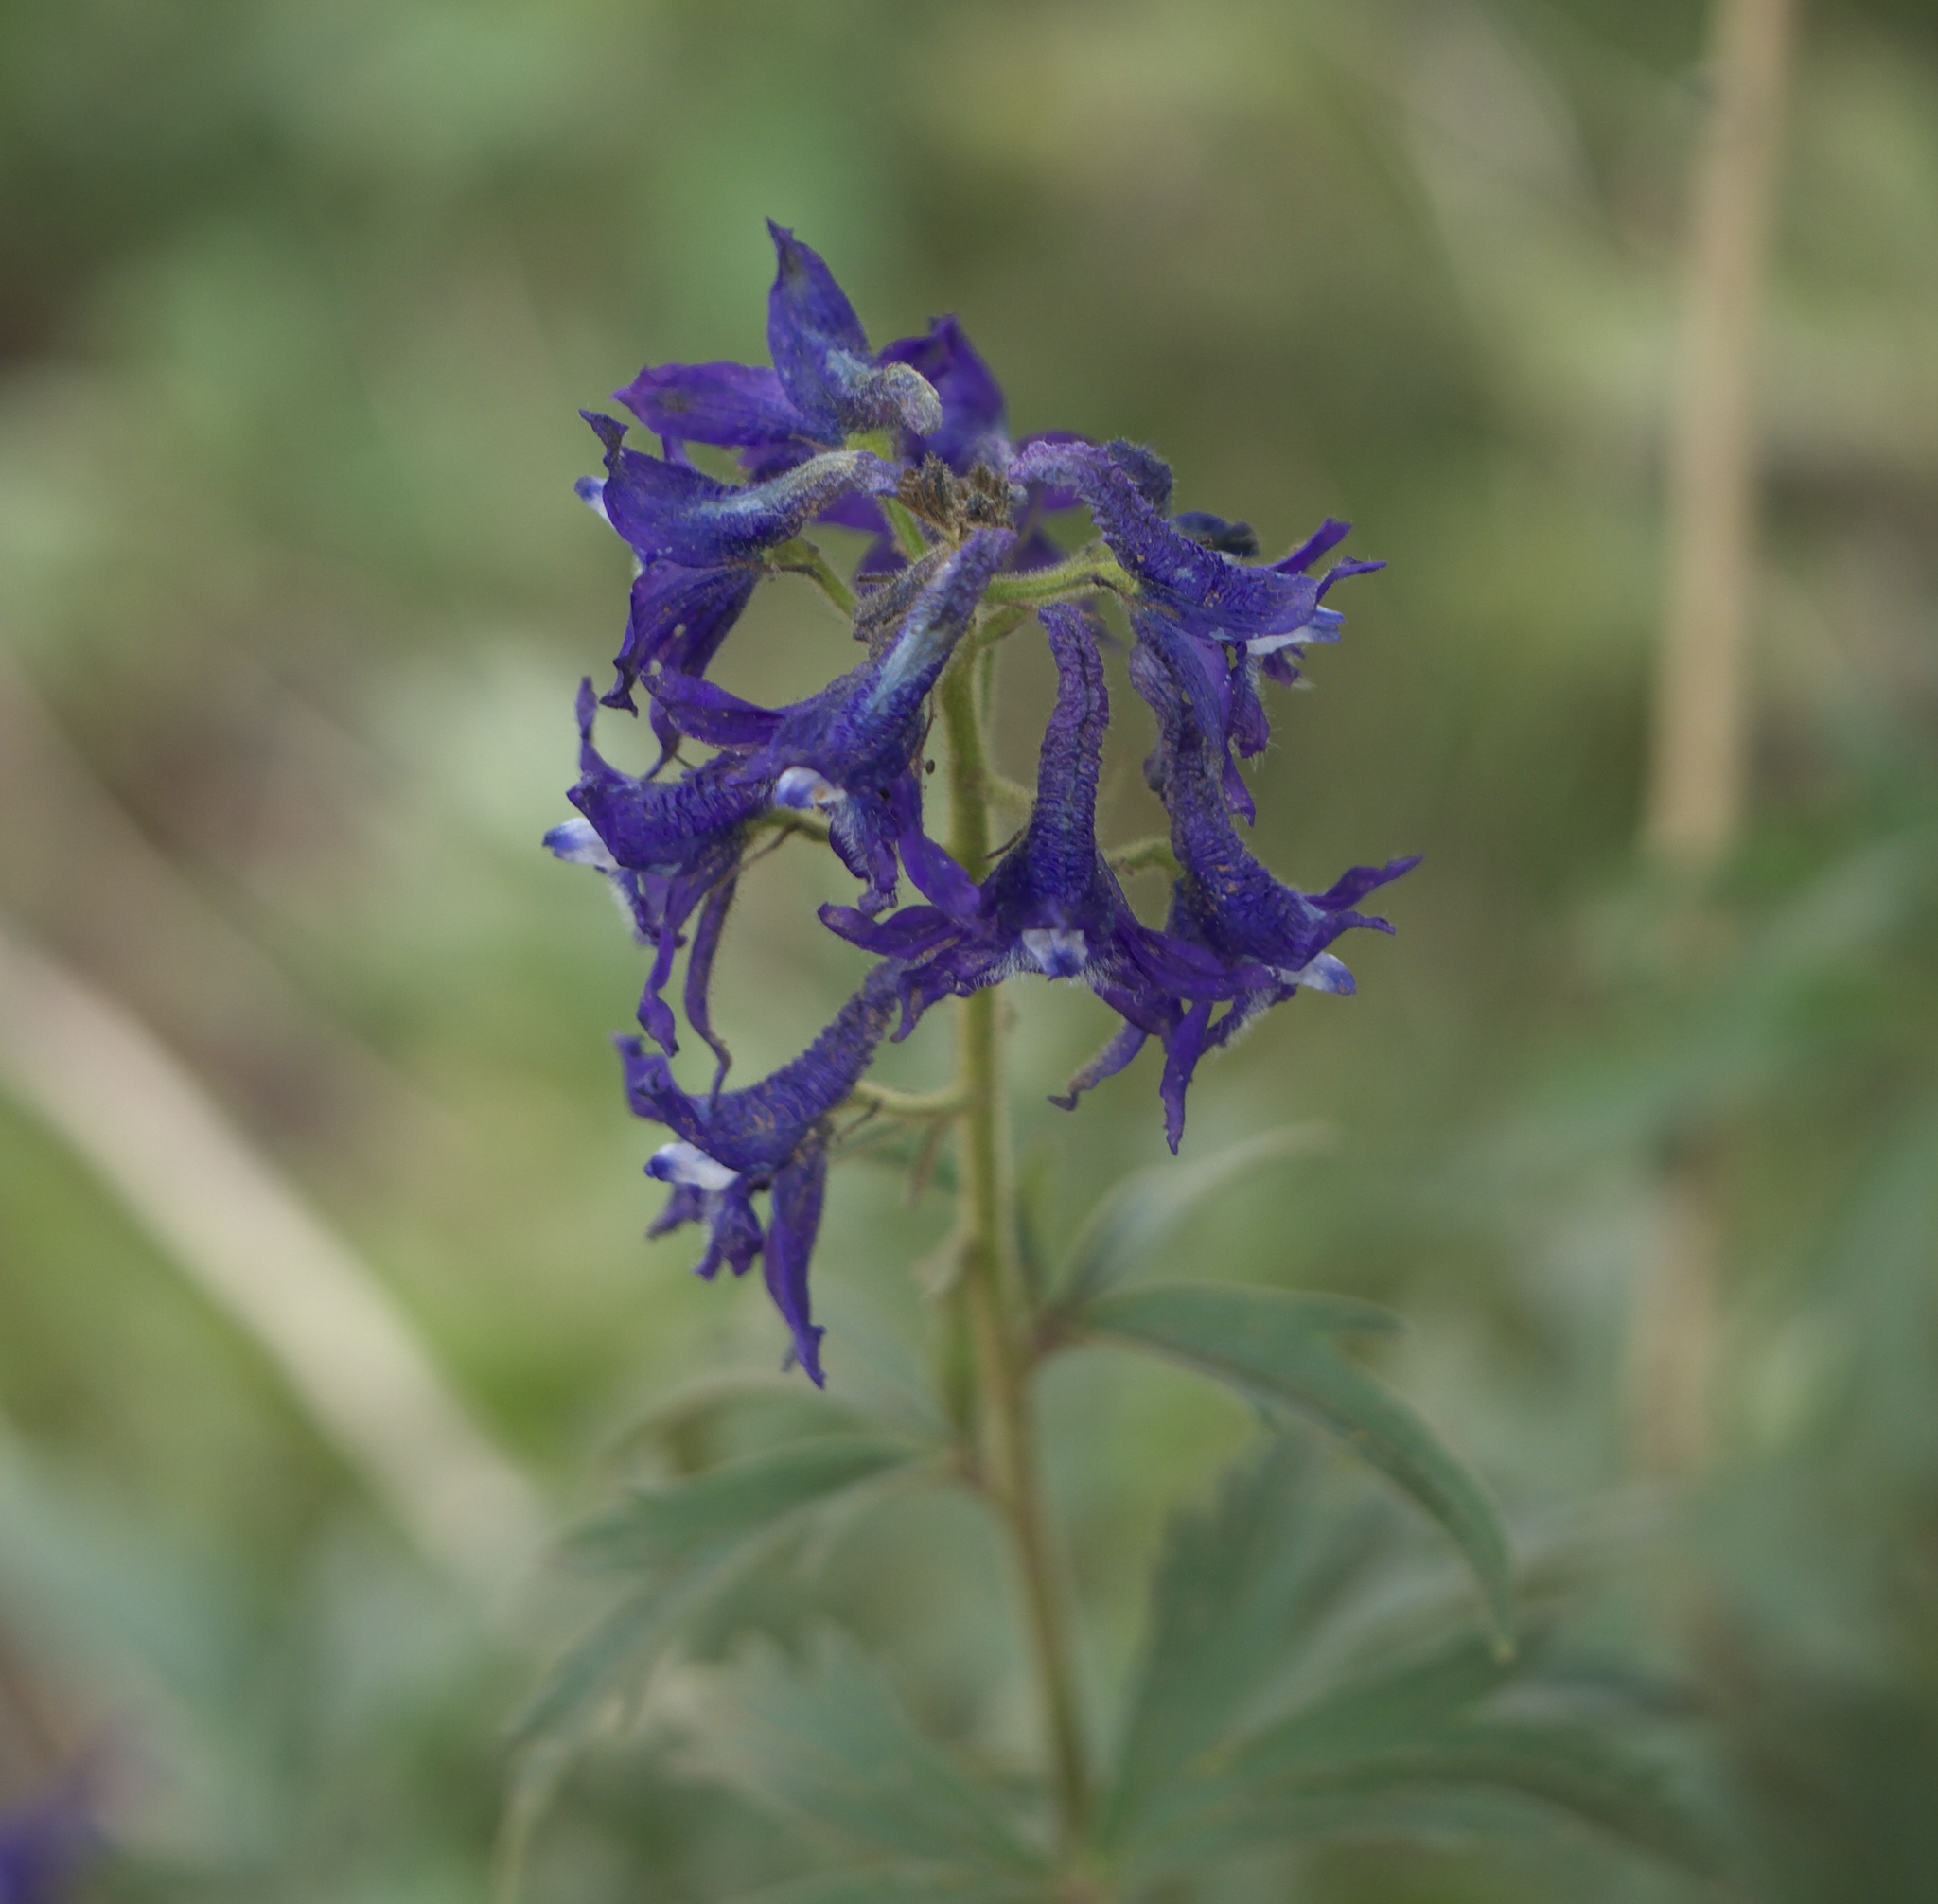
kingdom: Plantae
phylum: Tracheophyta
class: Magnoliopsida
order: Ranunculales
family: Ranunculaceae
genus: Delphinium
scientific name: Delphinium barbeyi
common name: Subalpine larkspur
